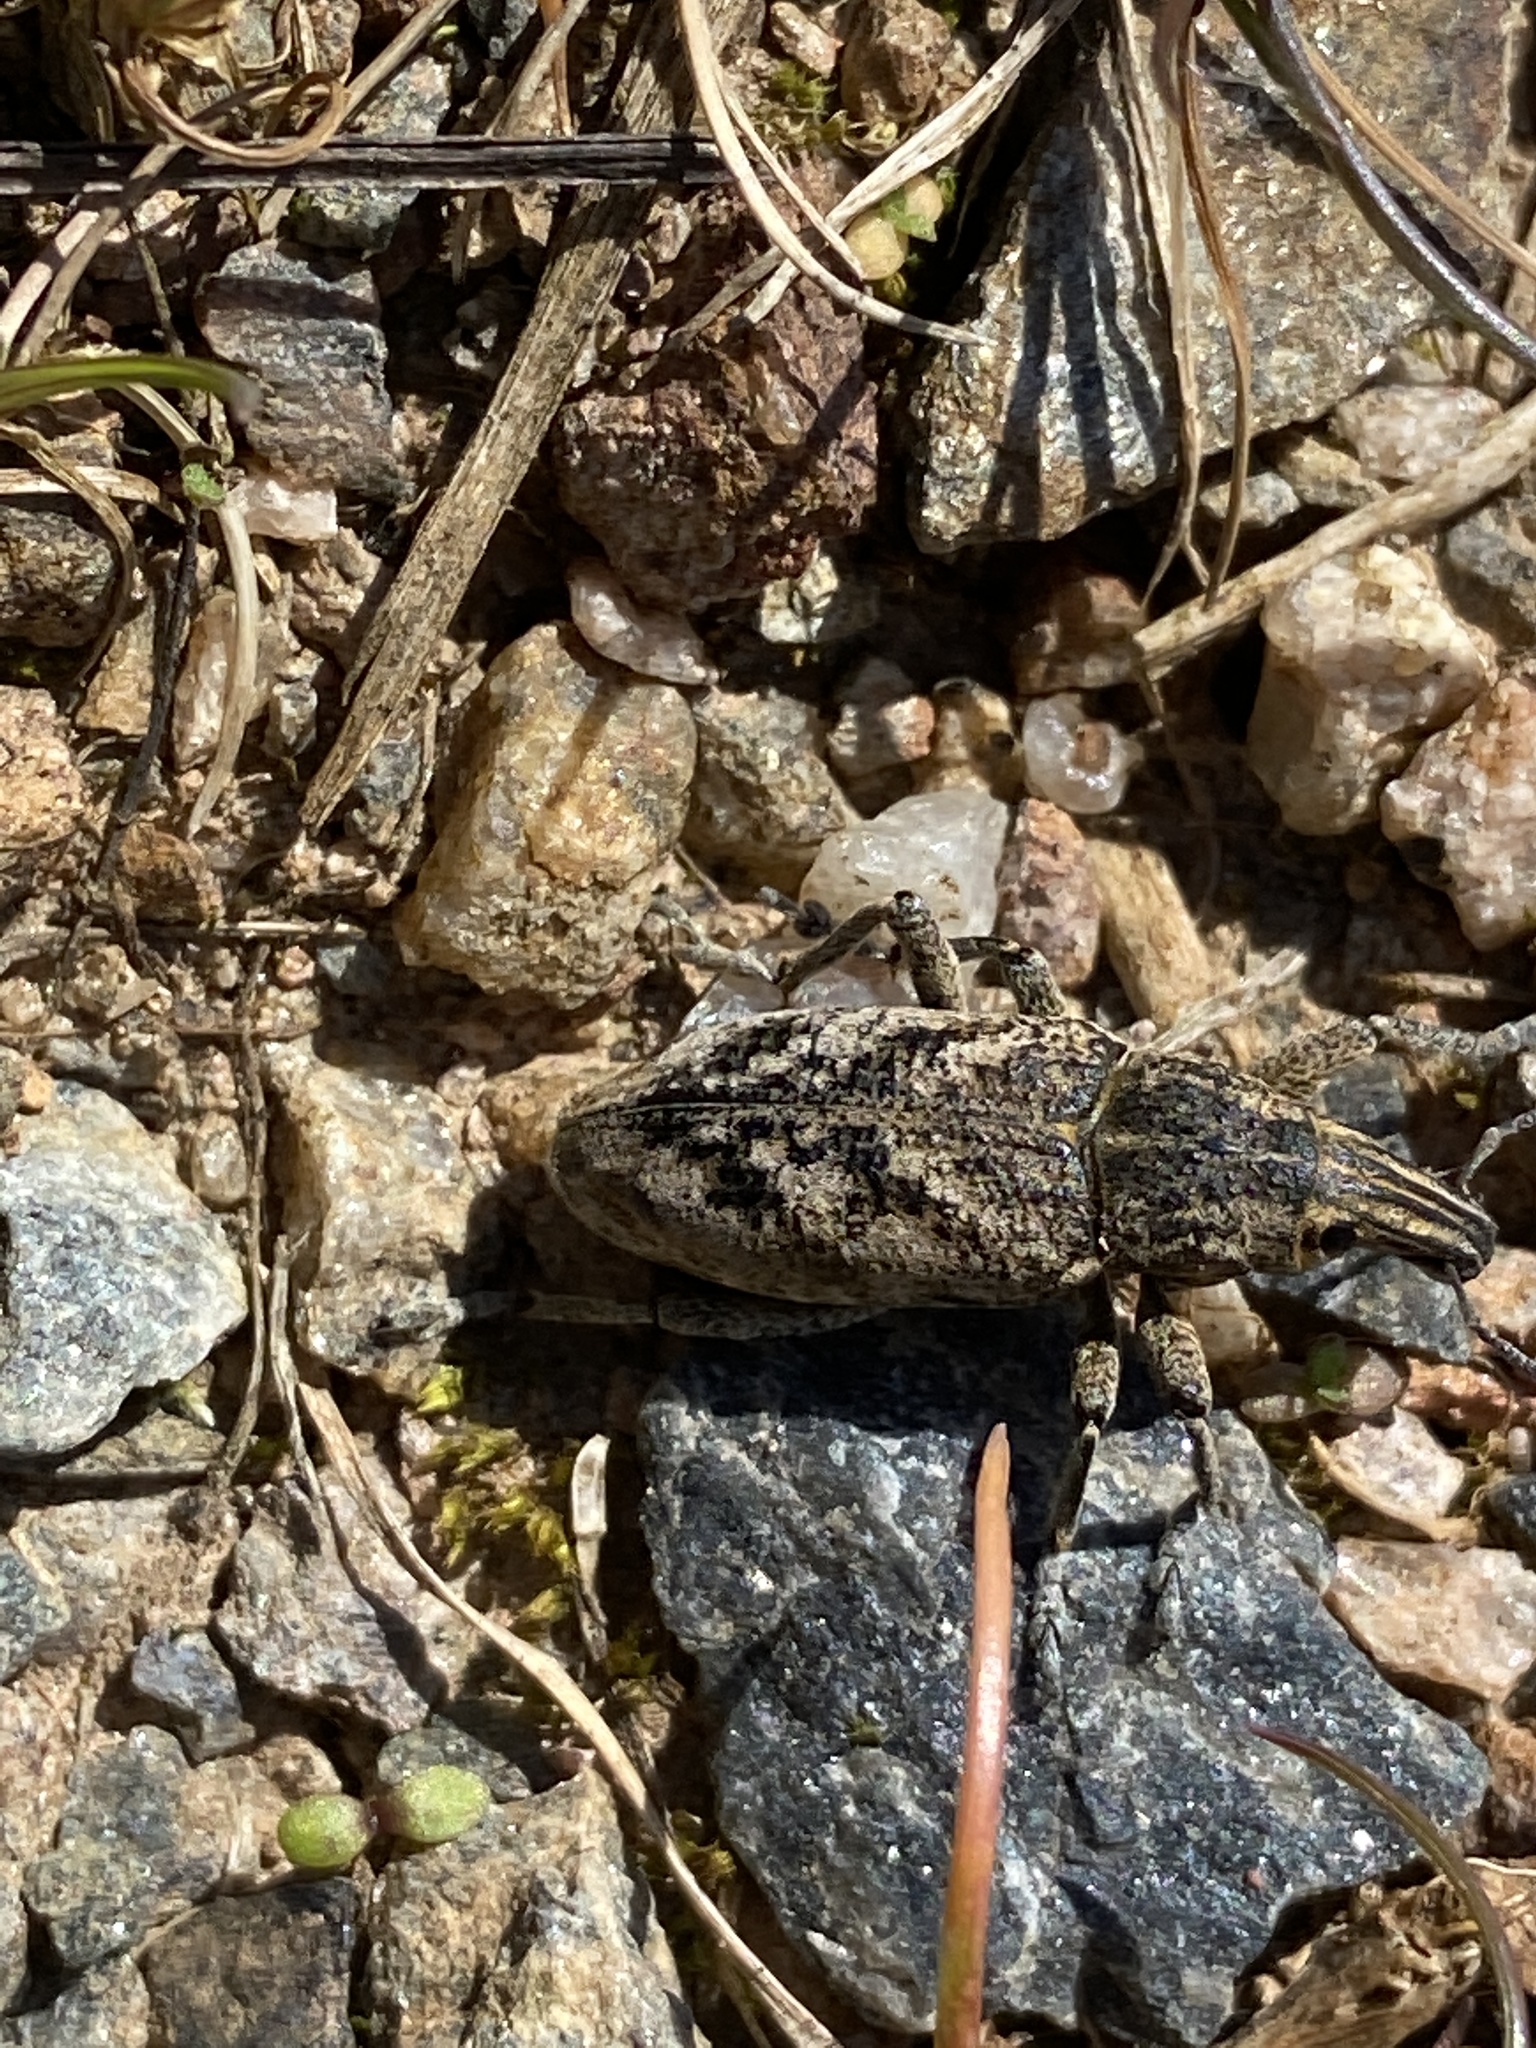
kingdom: Animalia
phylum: Arthropoda
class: Insecta
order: Coleoptera
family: Curculionidae
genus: Cleonis
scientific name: Cleonis pigra
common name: Large thistle weevil
